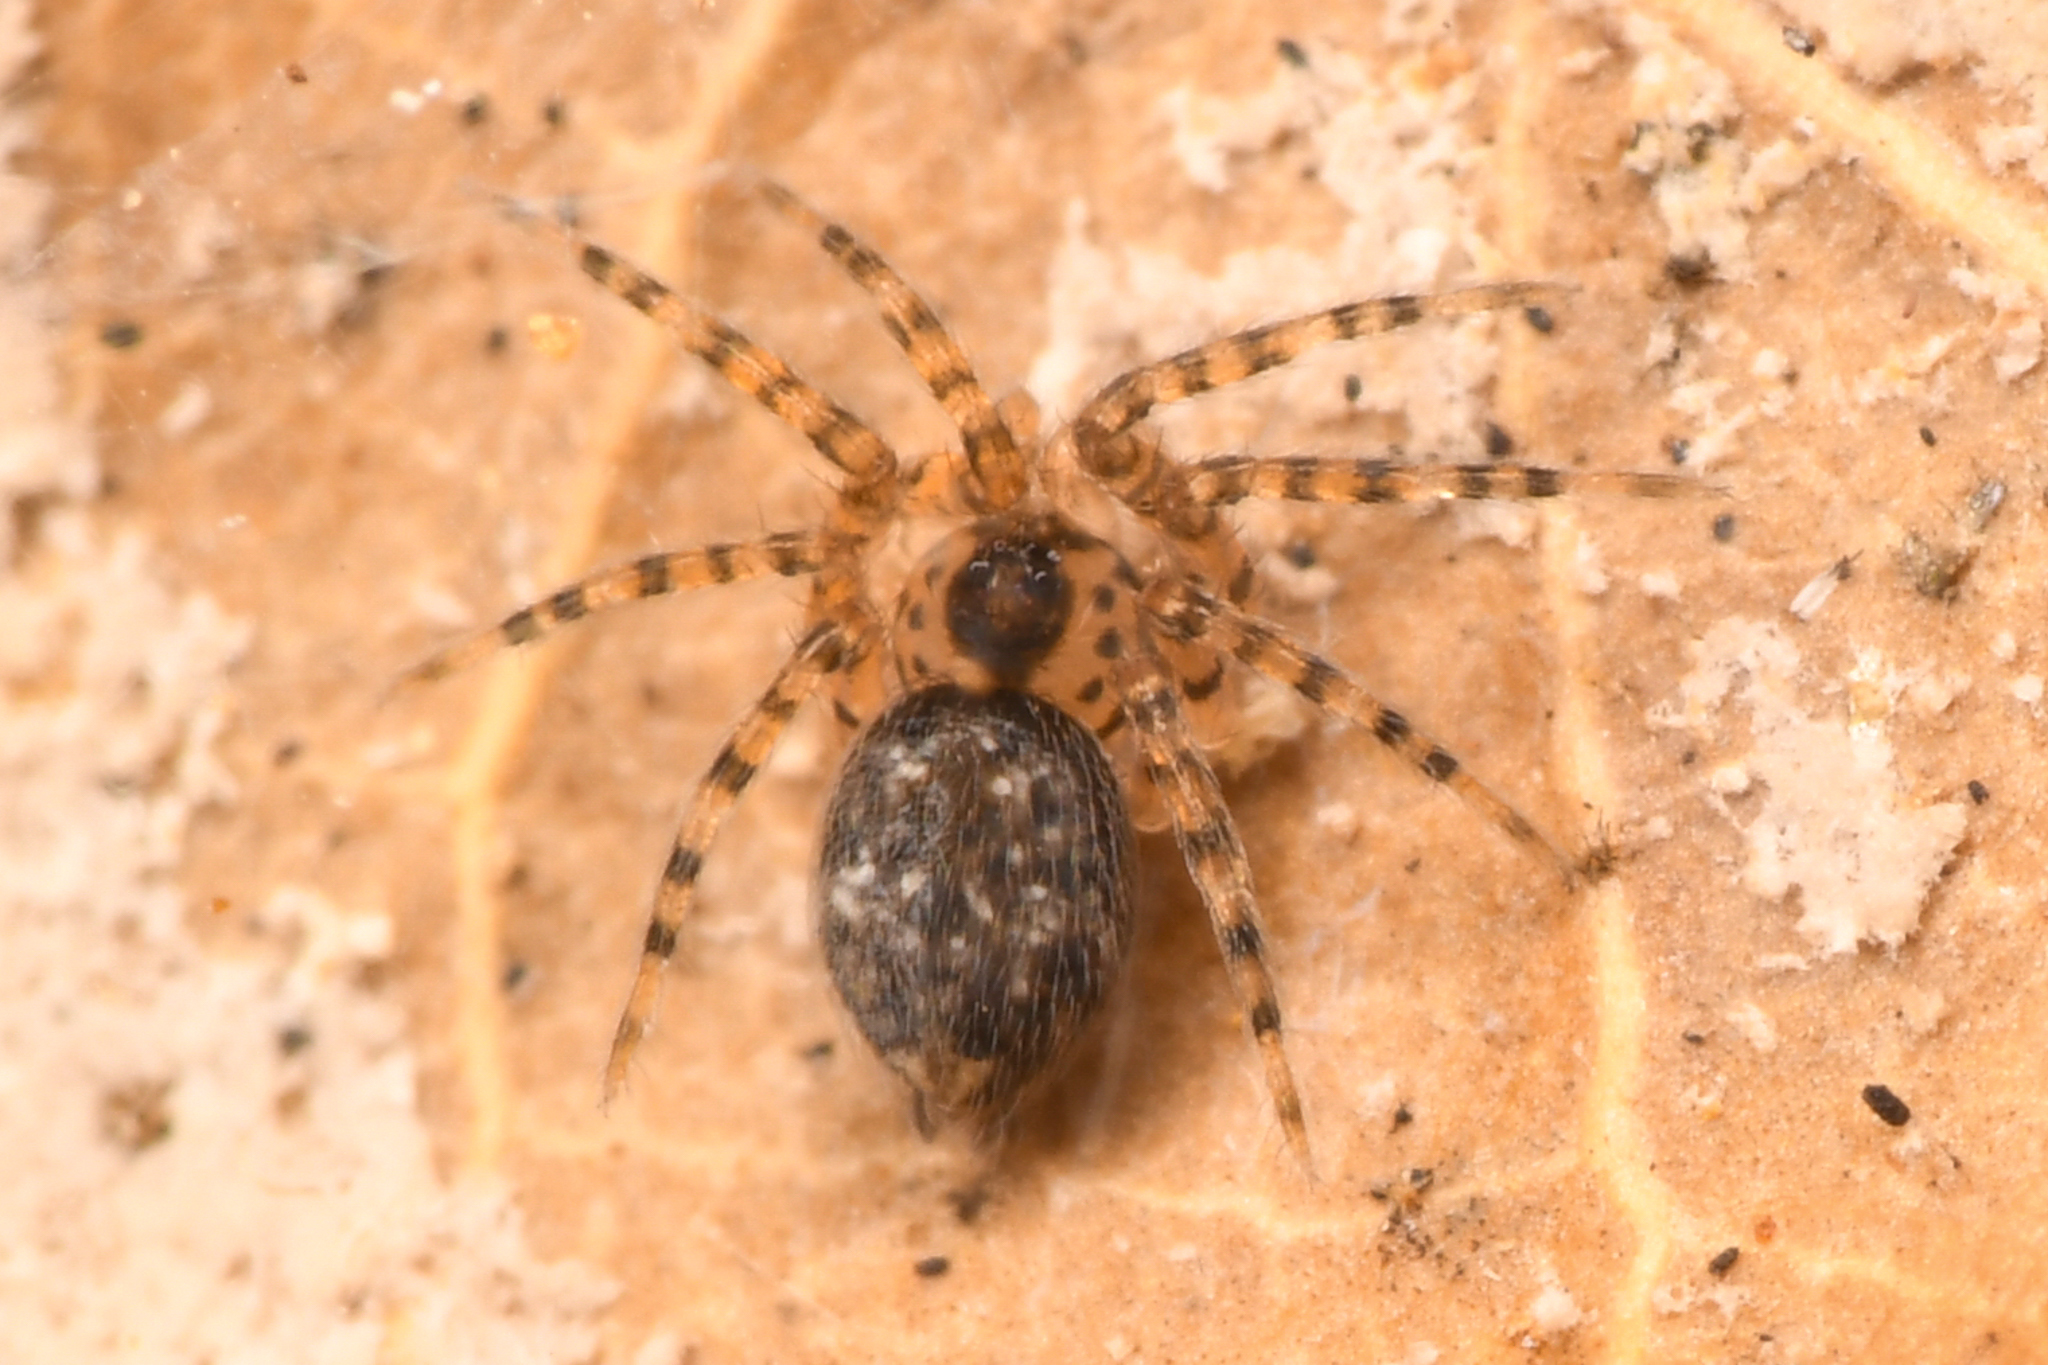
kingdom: Animalia
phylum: Arthropoda
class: Arachnida
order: Araneae
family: Oecobiidae
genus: Oecobius
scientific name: Oecobius navus
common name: Flatmesh weaver
